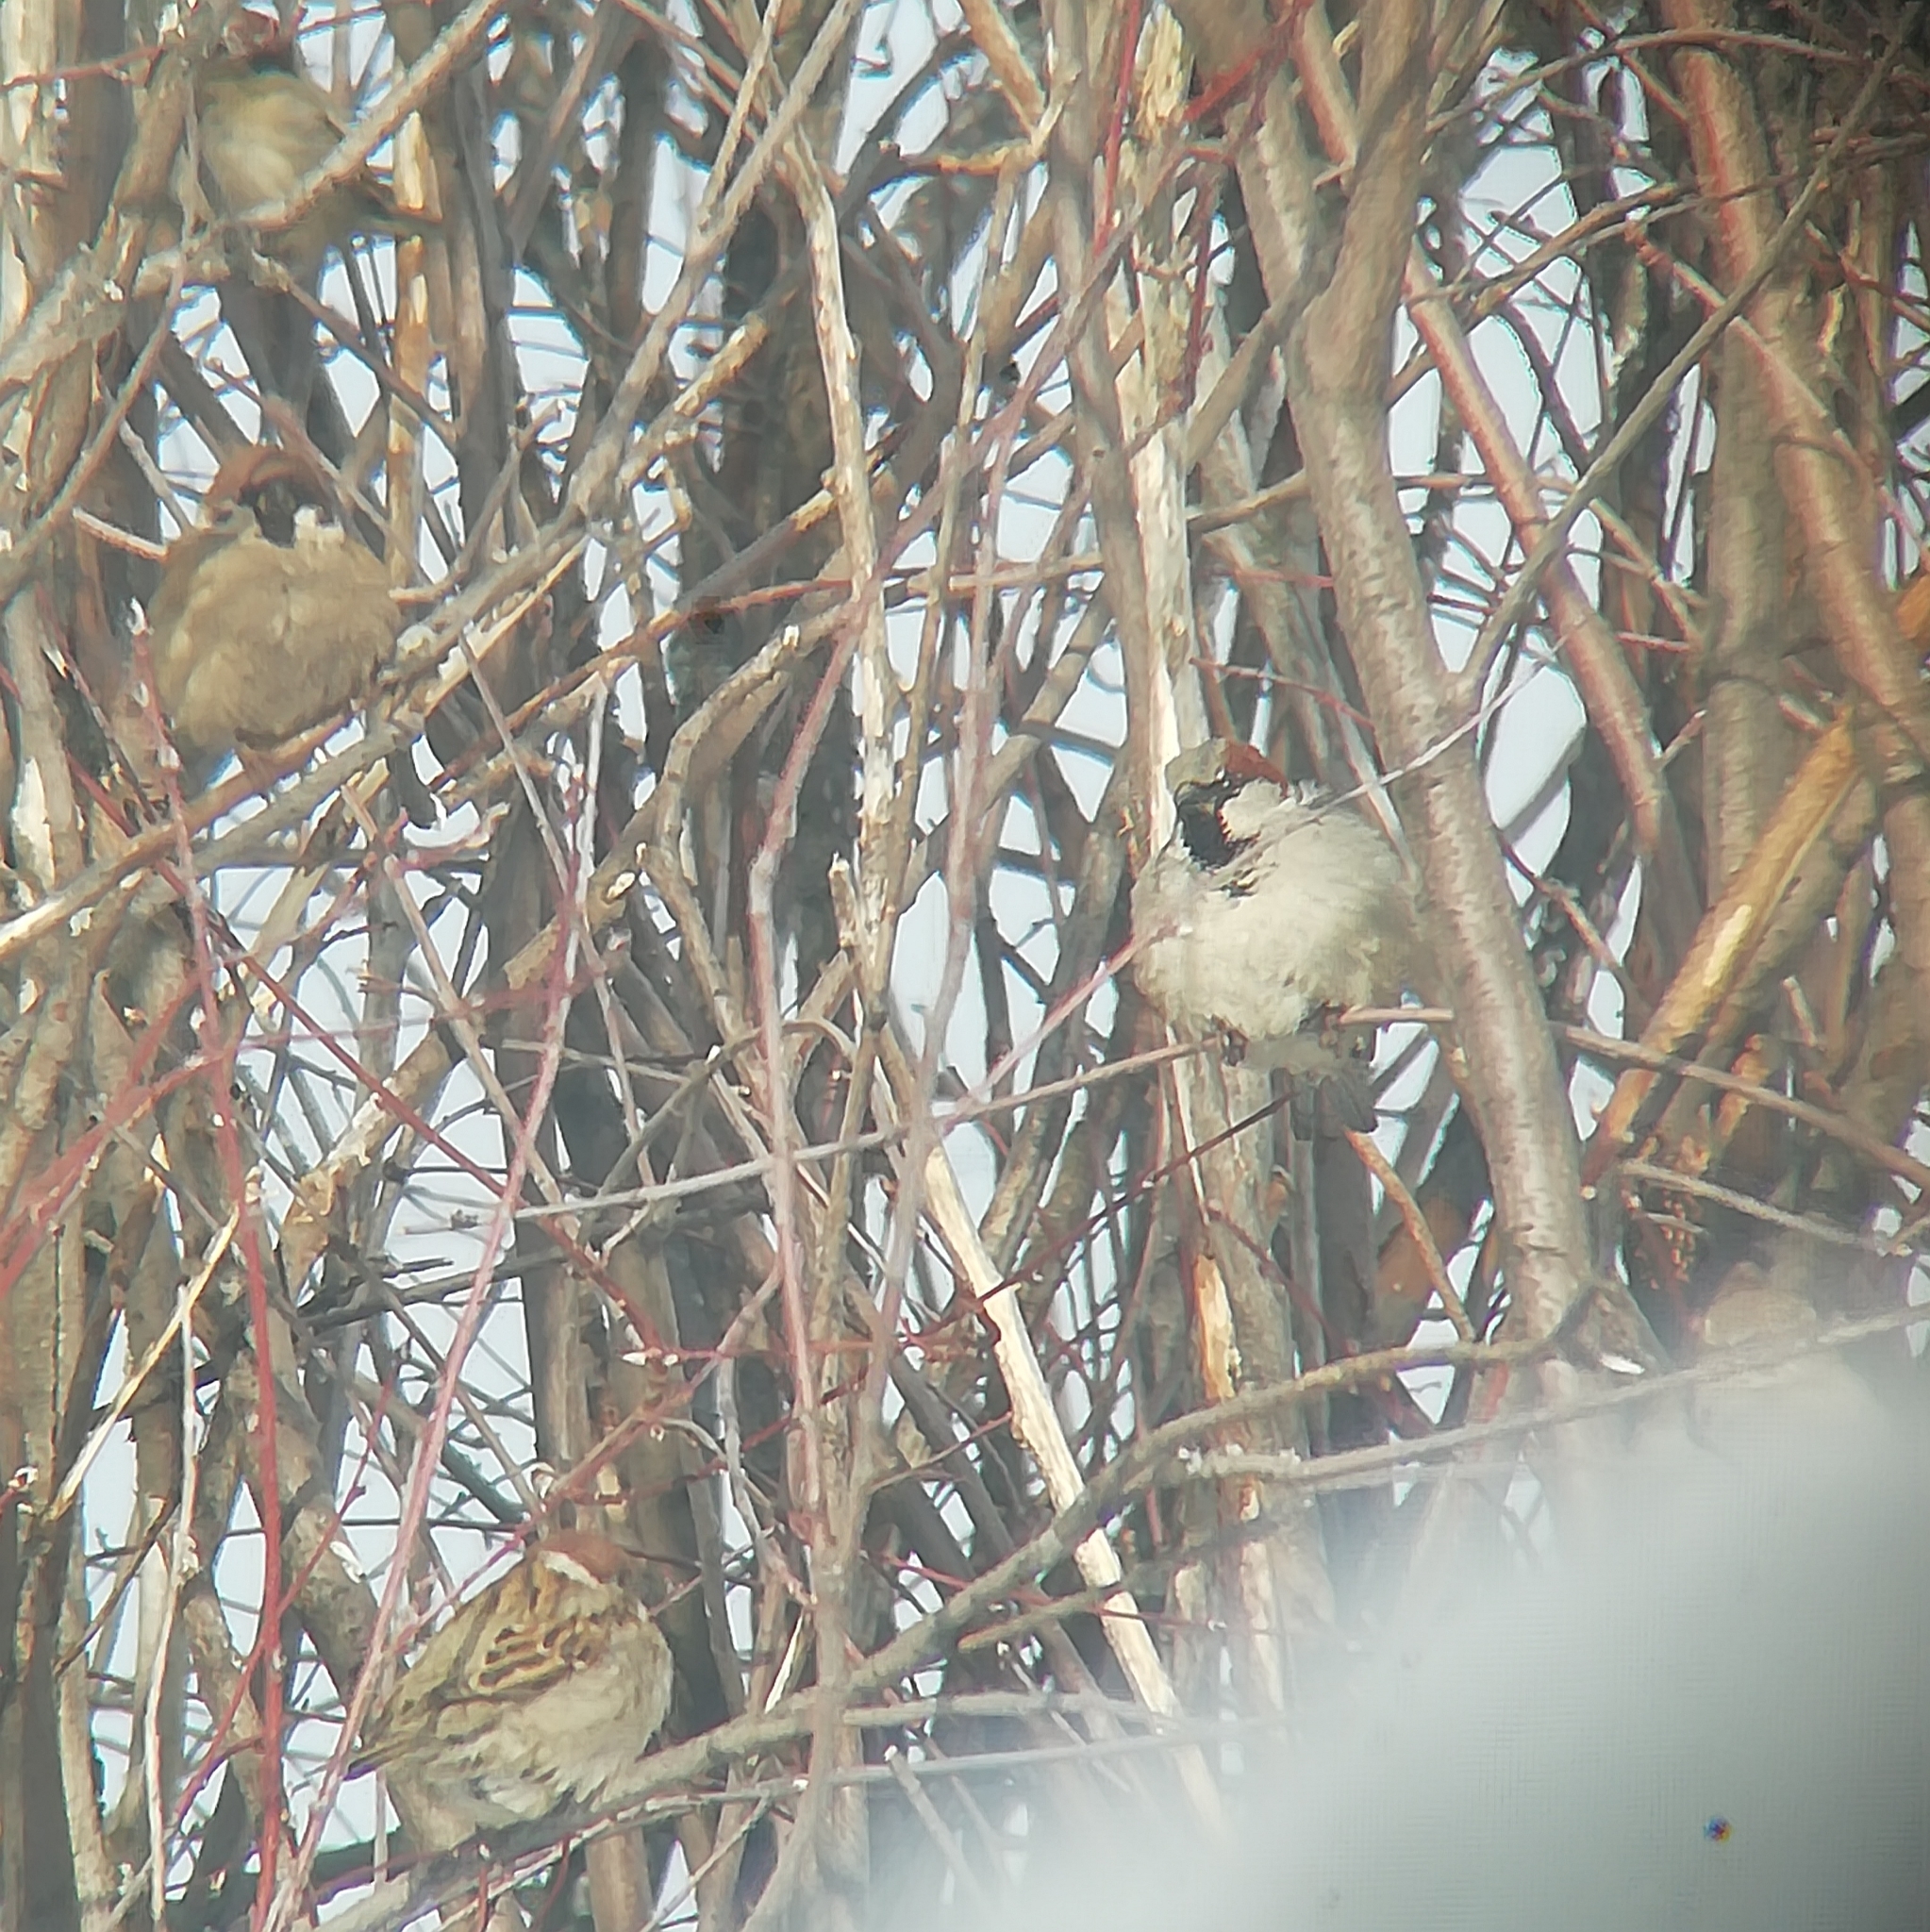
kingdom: Animalia
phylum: Chordata
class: Aves
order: Passeriformes
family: Passeridae
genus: Passer
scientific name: Passer domesticus
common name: House sparrow
